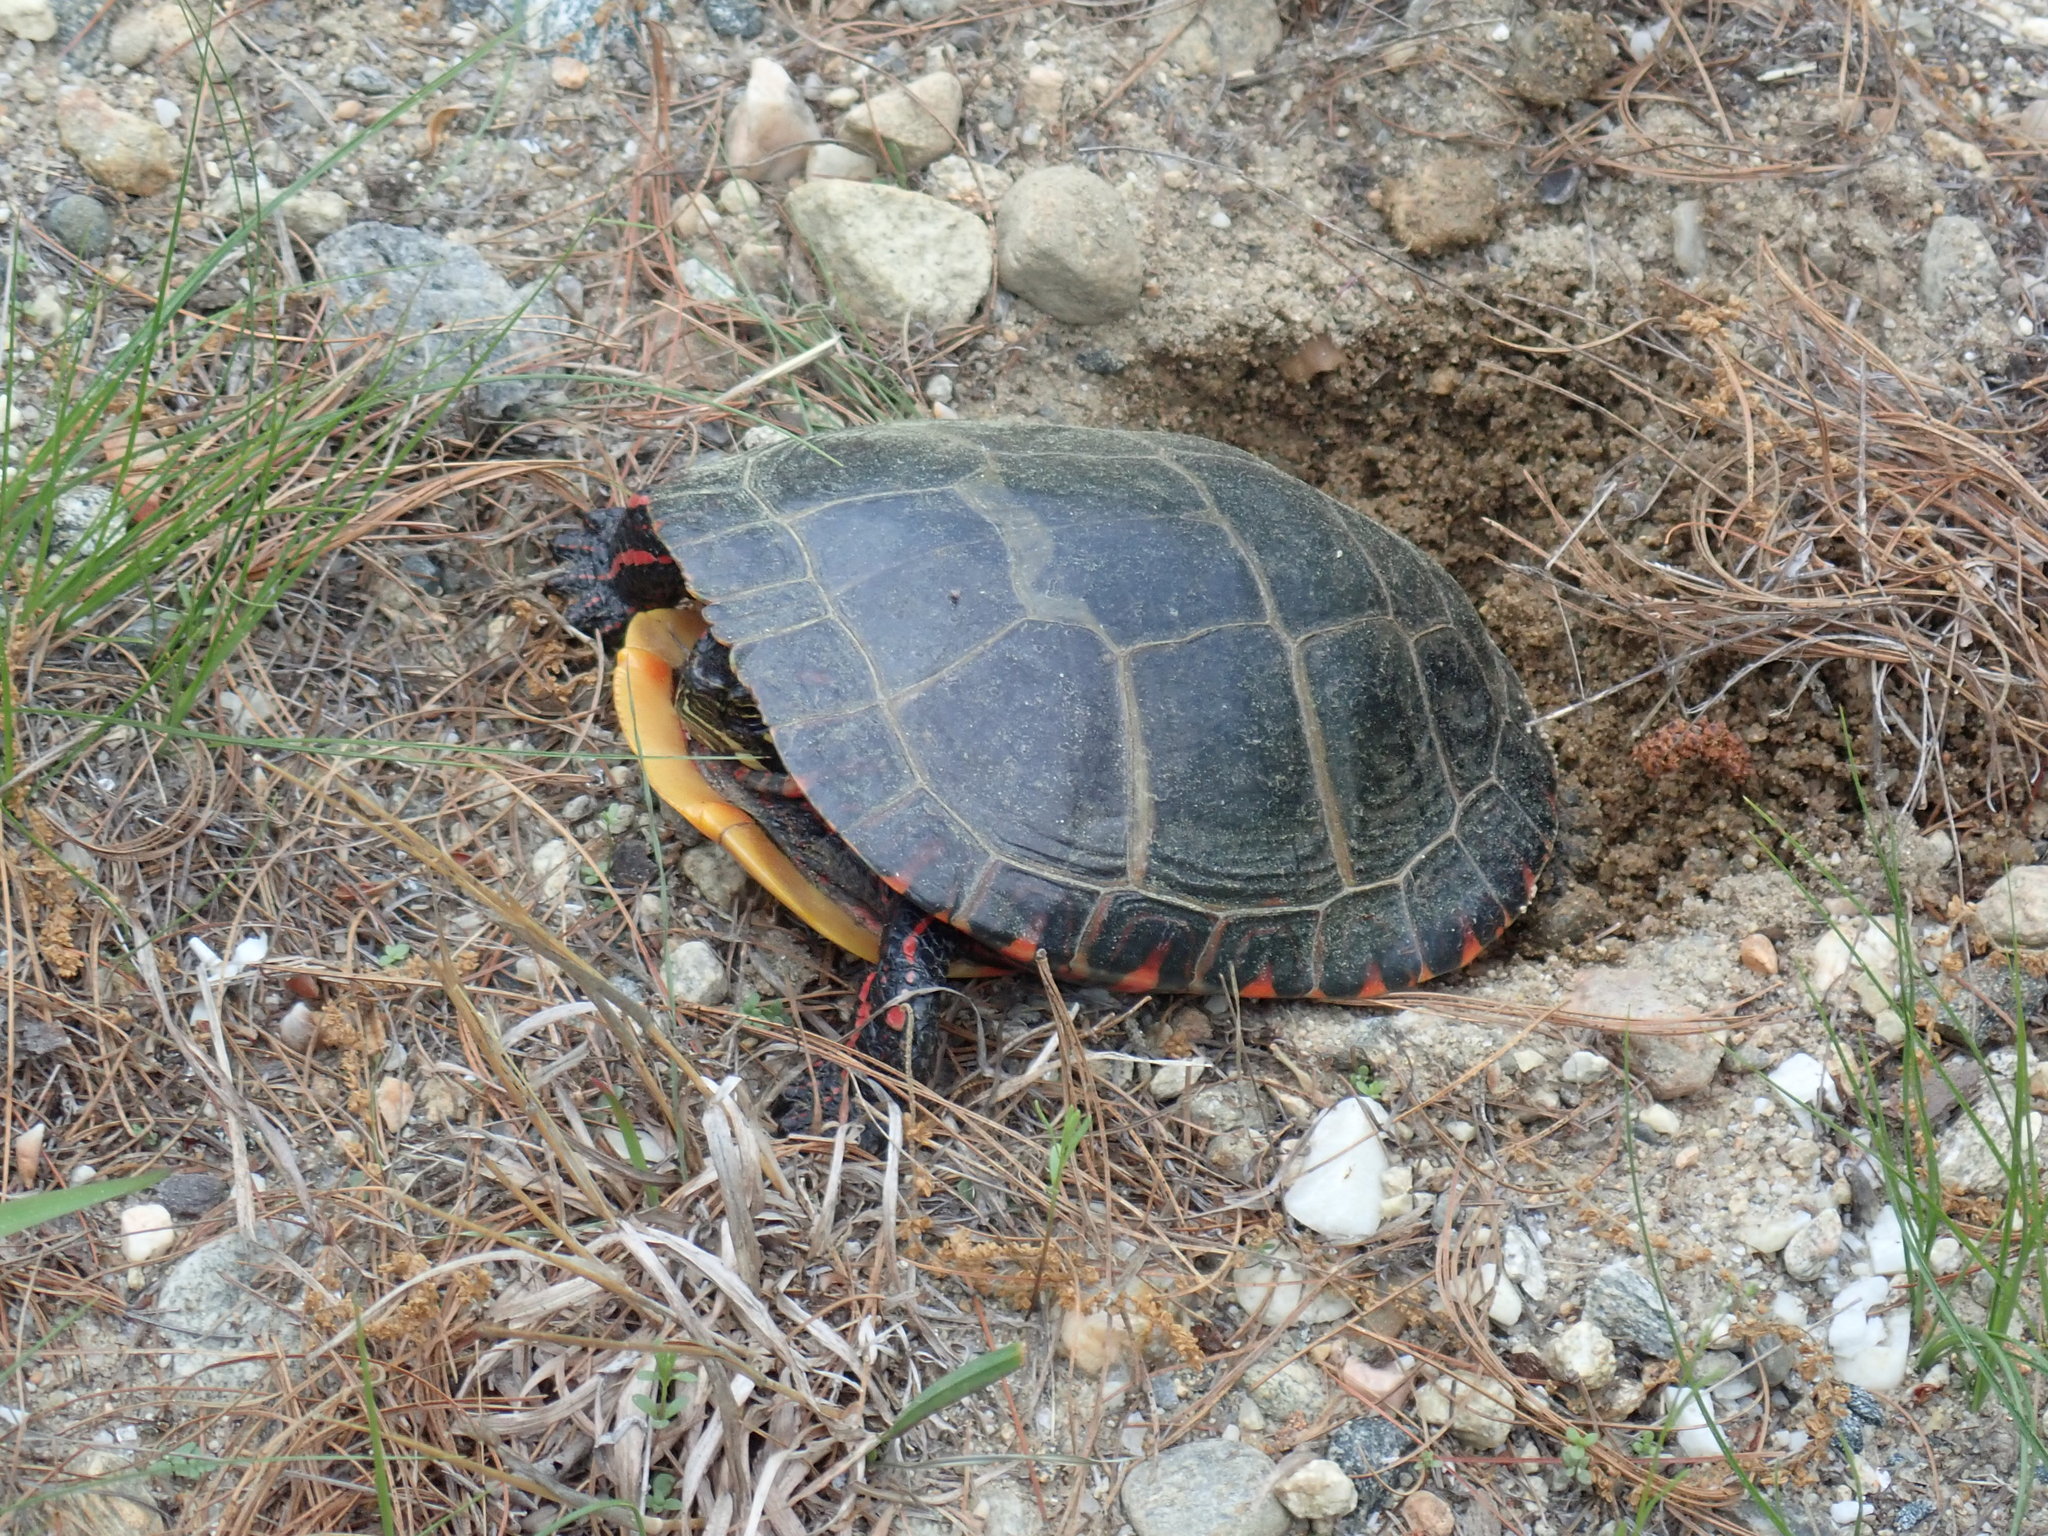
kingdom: Animalia
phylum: Chordata
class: Testudines
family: Emydidae
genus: Chrysemys
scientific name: Chrysemys picta
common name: Painted turtle
